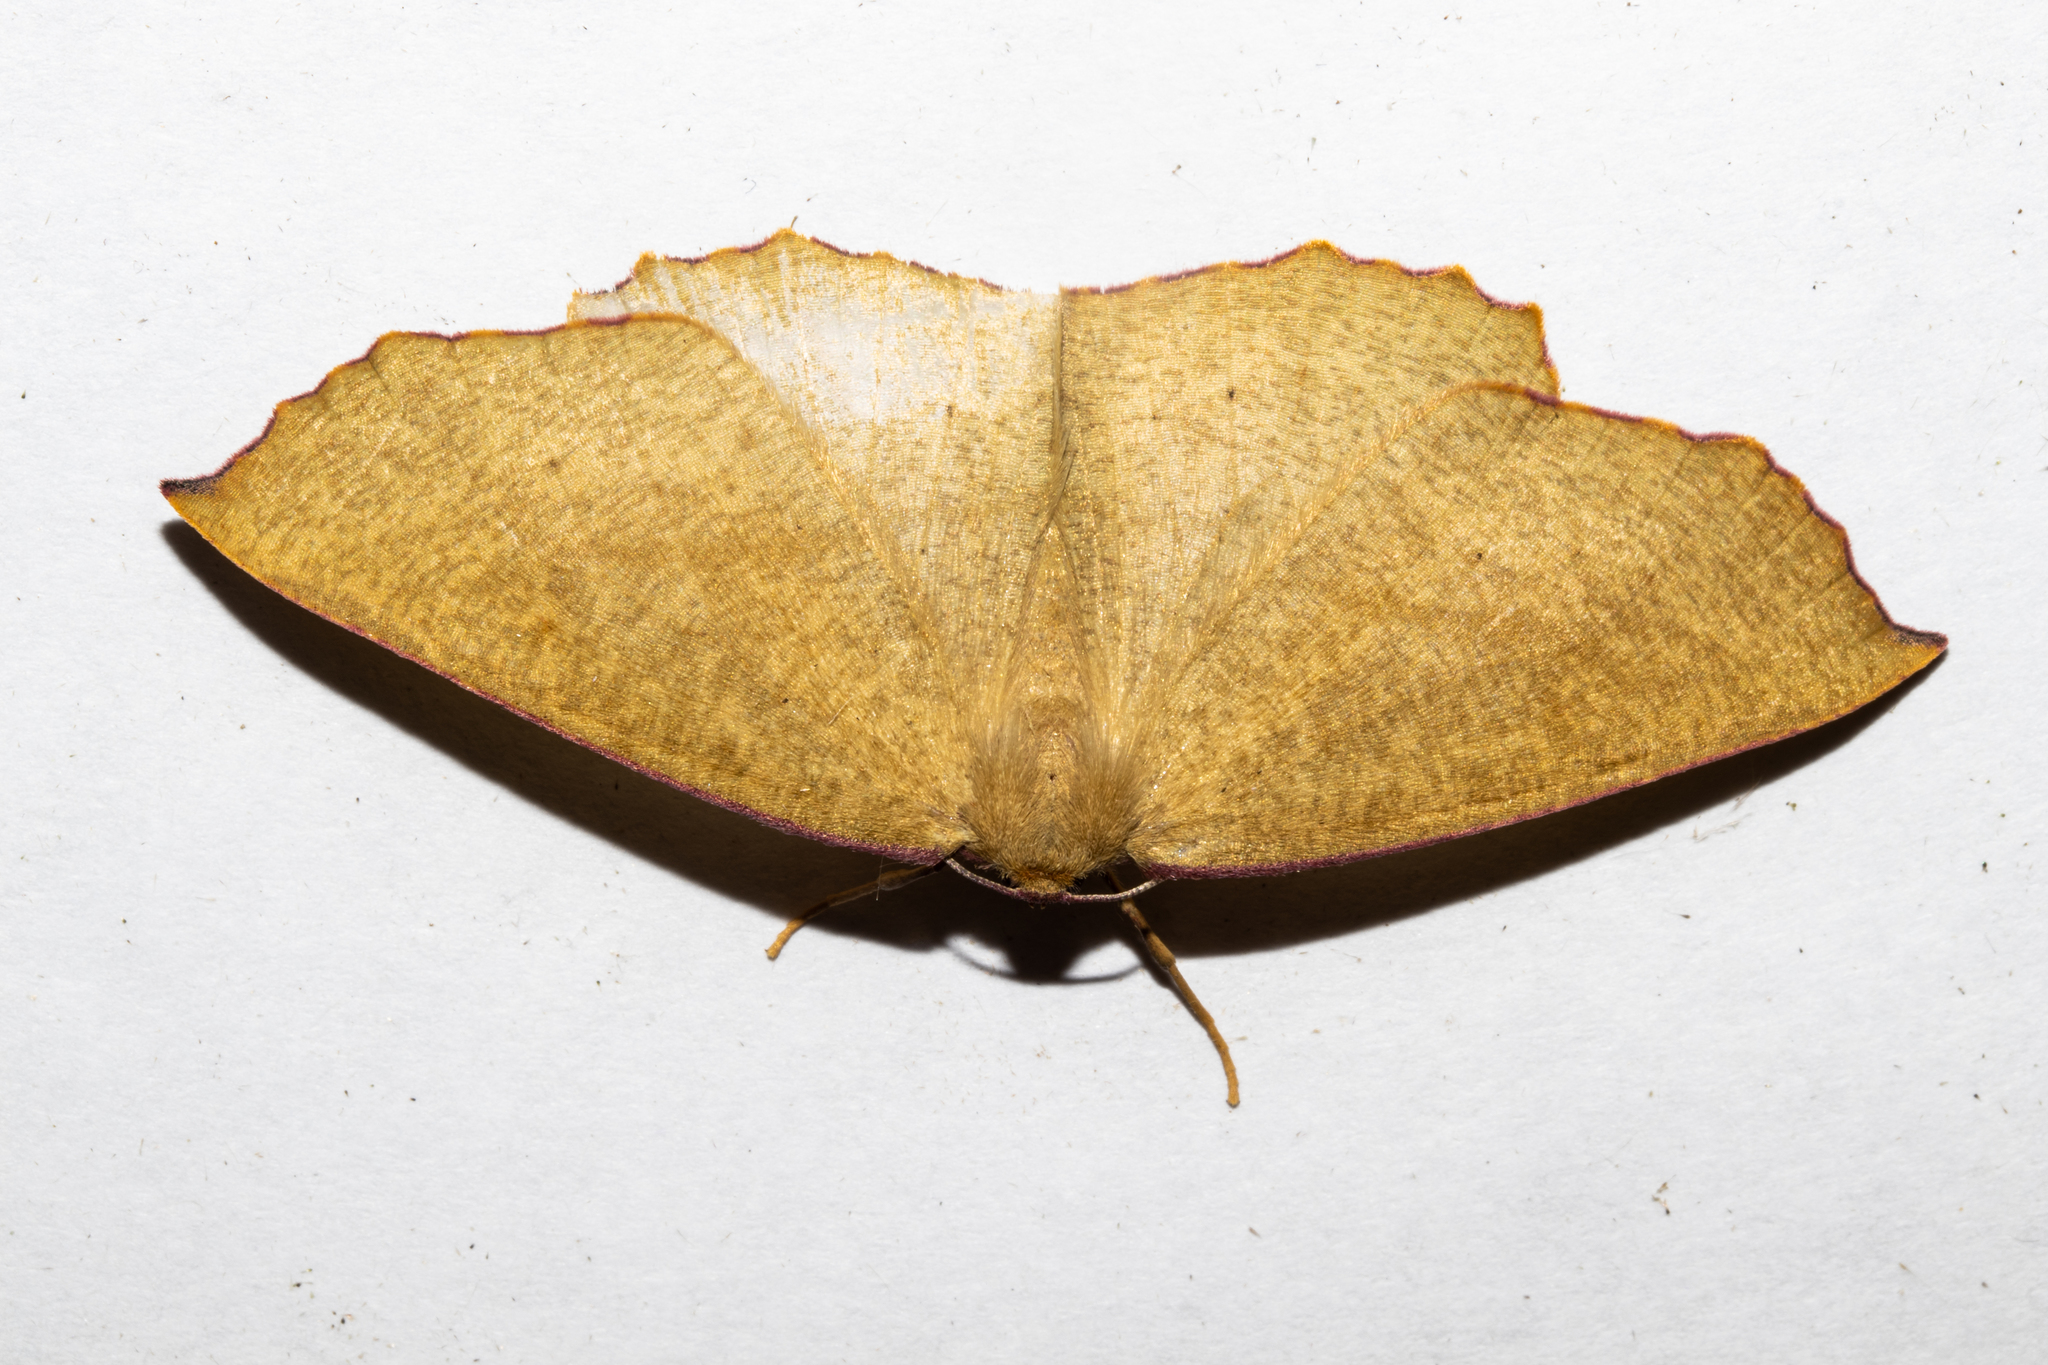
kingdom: Animalia
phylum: Arthropoda
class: Insecta
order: Lepidoptera
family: Geometridae
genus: Xyridacma
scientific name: Xyridacma alectoraria
